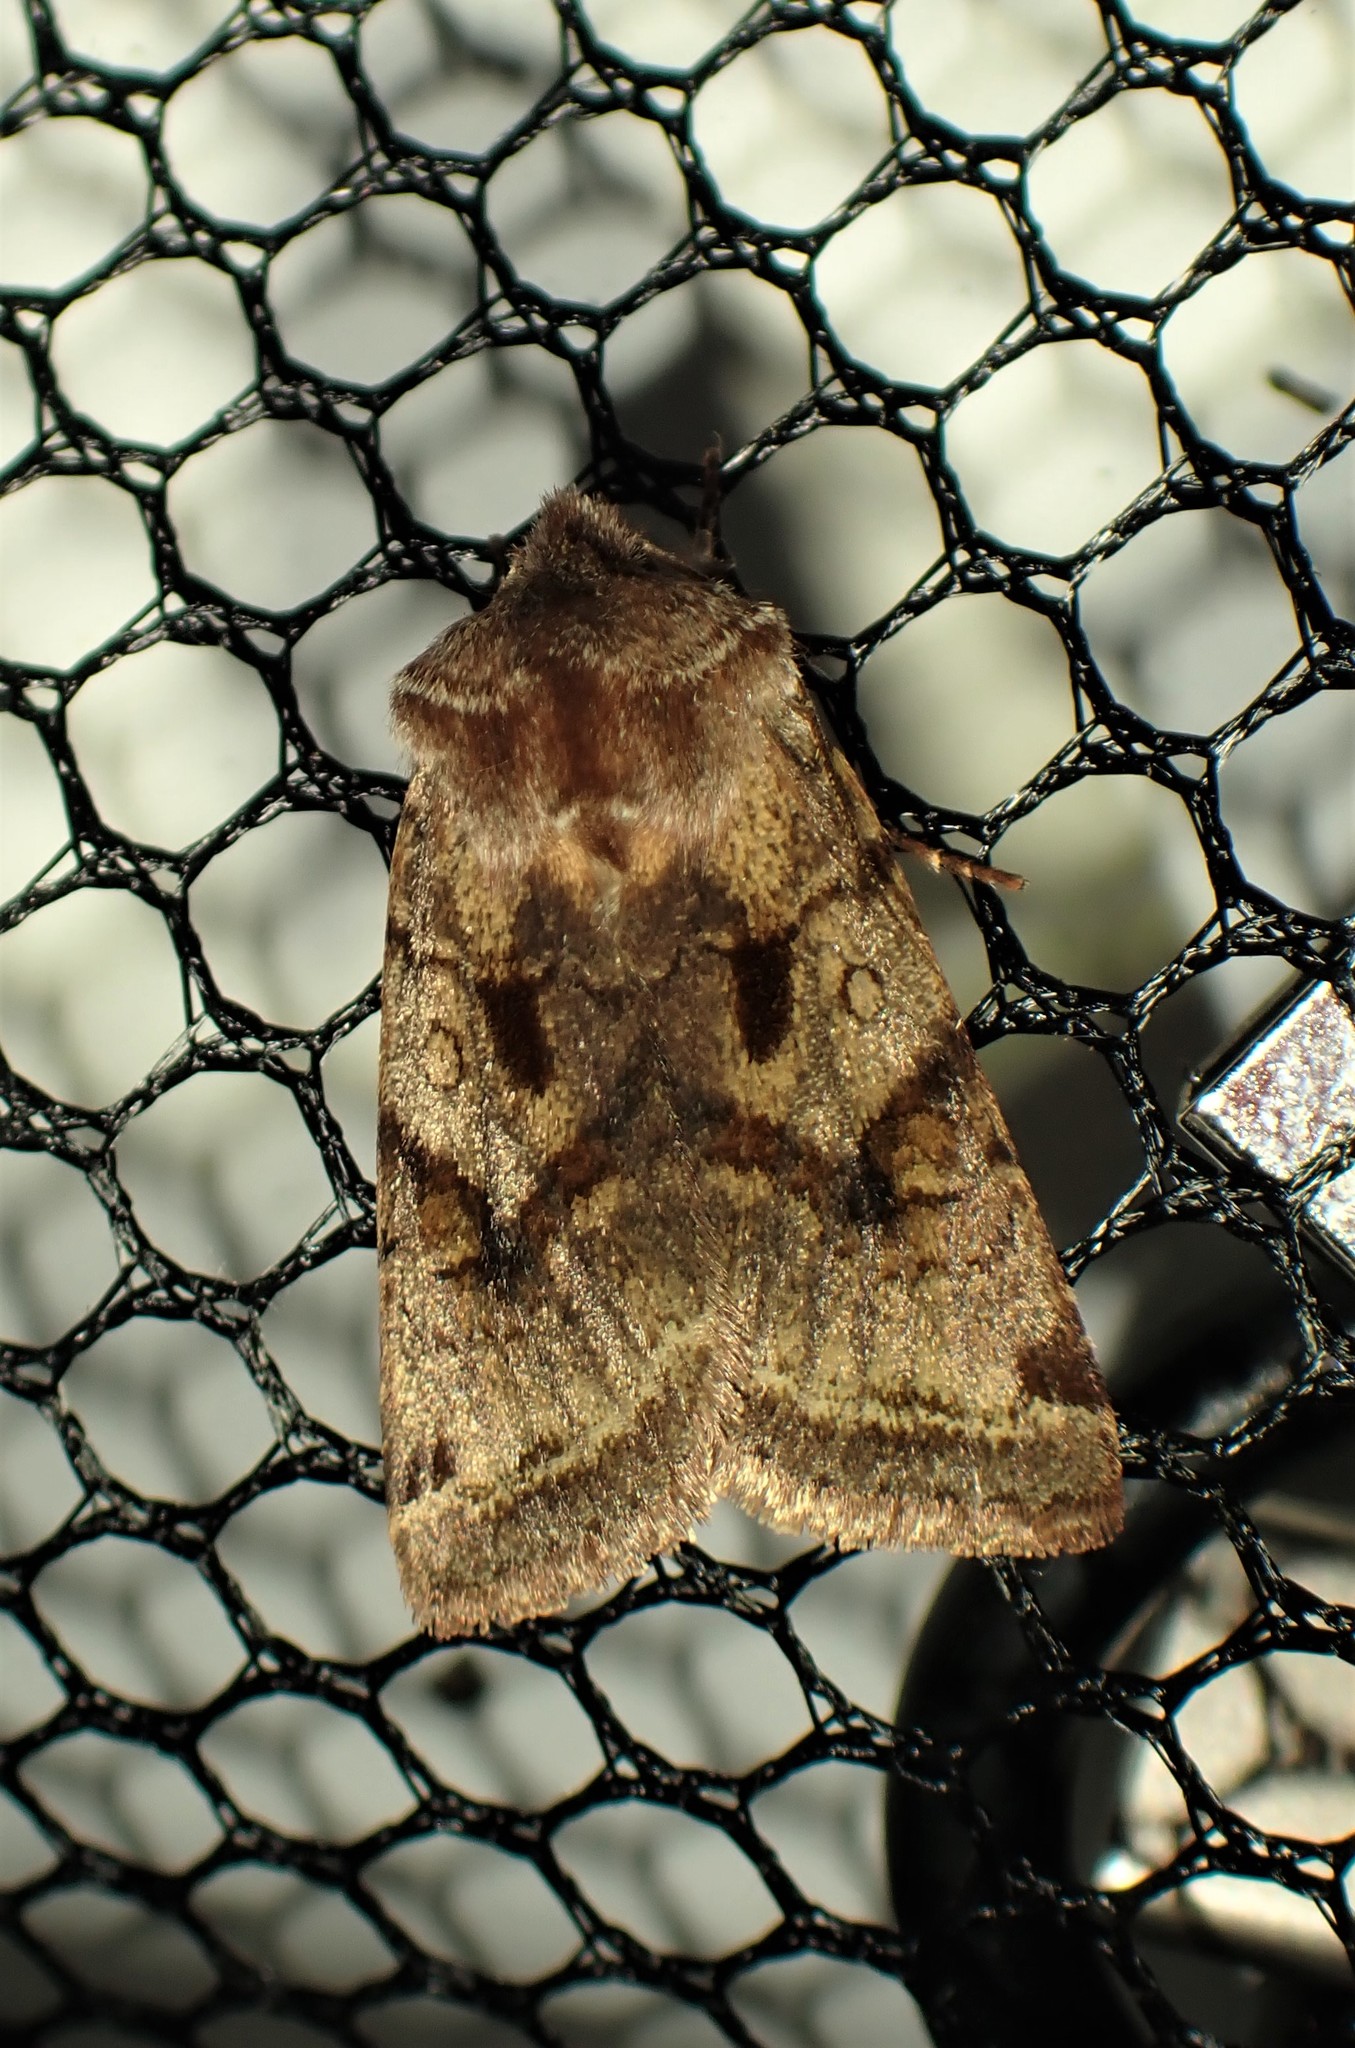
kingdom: Animalia
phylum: Arthropoda
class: Insecta
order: Lepidoptera
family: Noctuidae
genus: Cerastis
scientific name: Cerastis salicarum
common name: Willow dart
